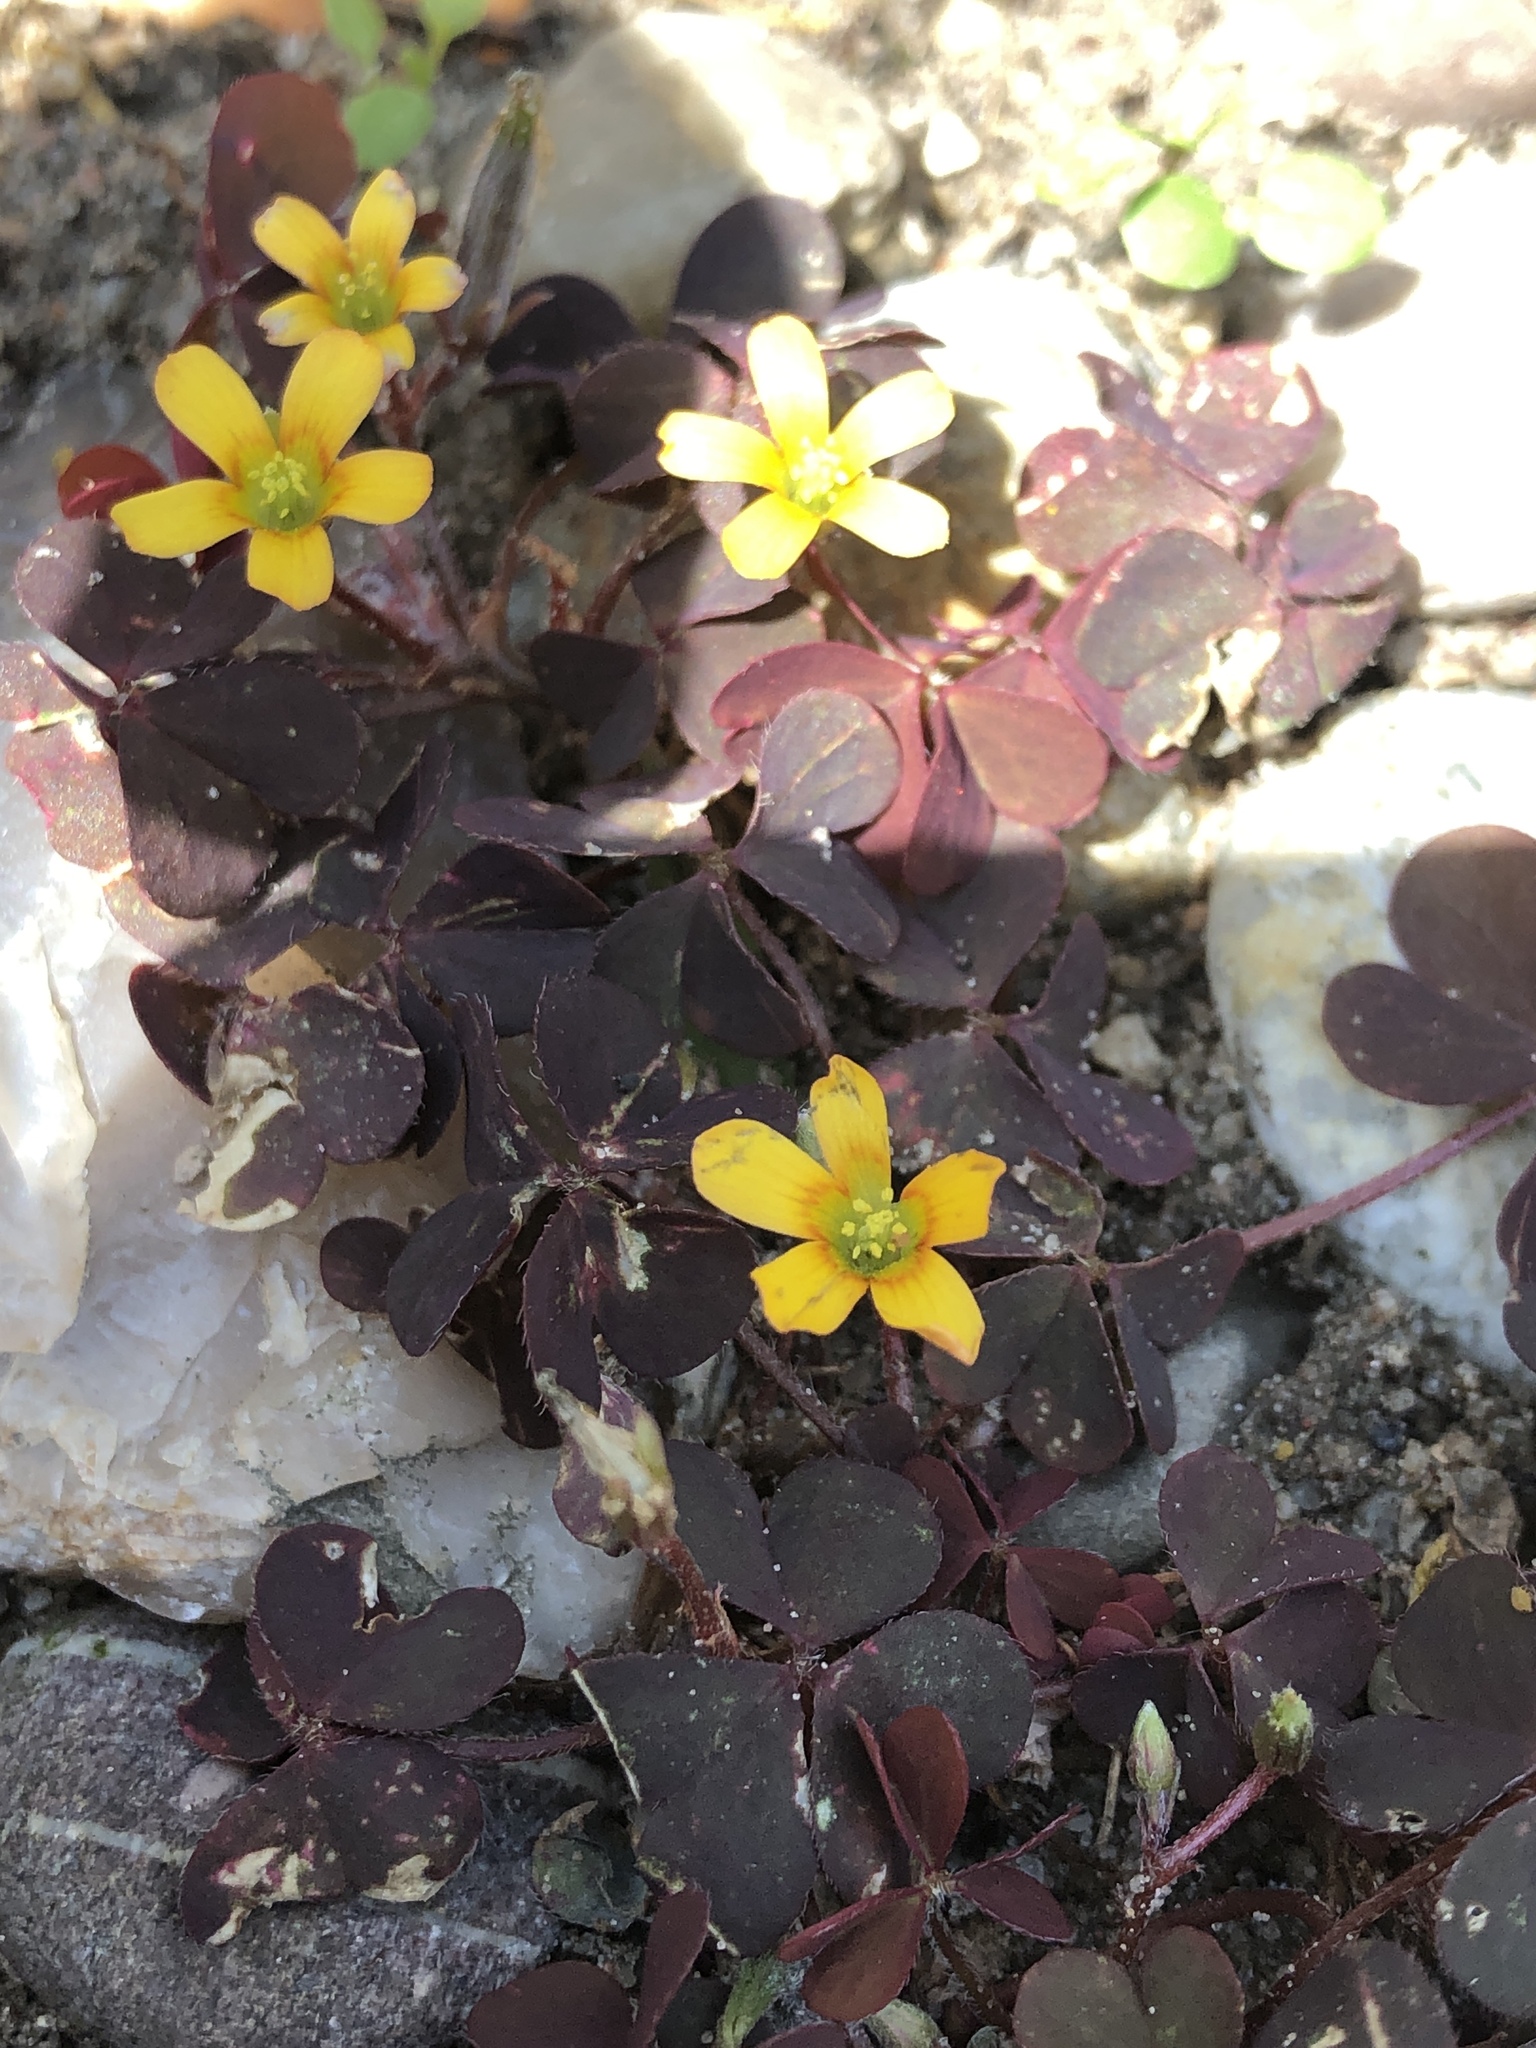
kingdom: Plantae
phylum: Tracheophyta
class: Magnoliopsida
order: Oxalidales
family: Oxalidaceae
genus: Oxalis
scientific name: Oxalis corniculata
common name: Procumbent yellow-sorrel
